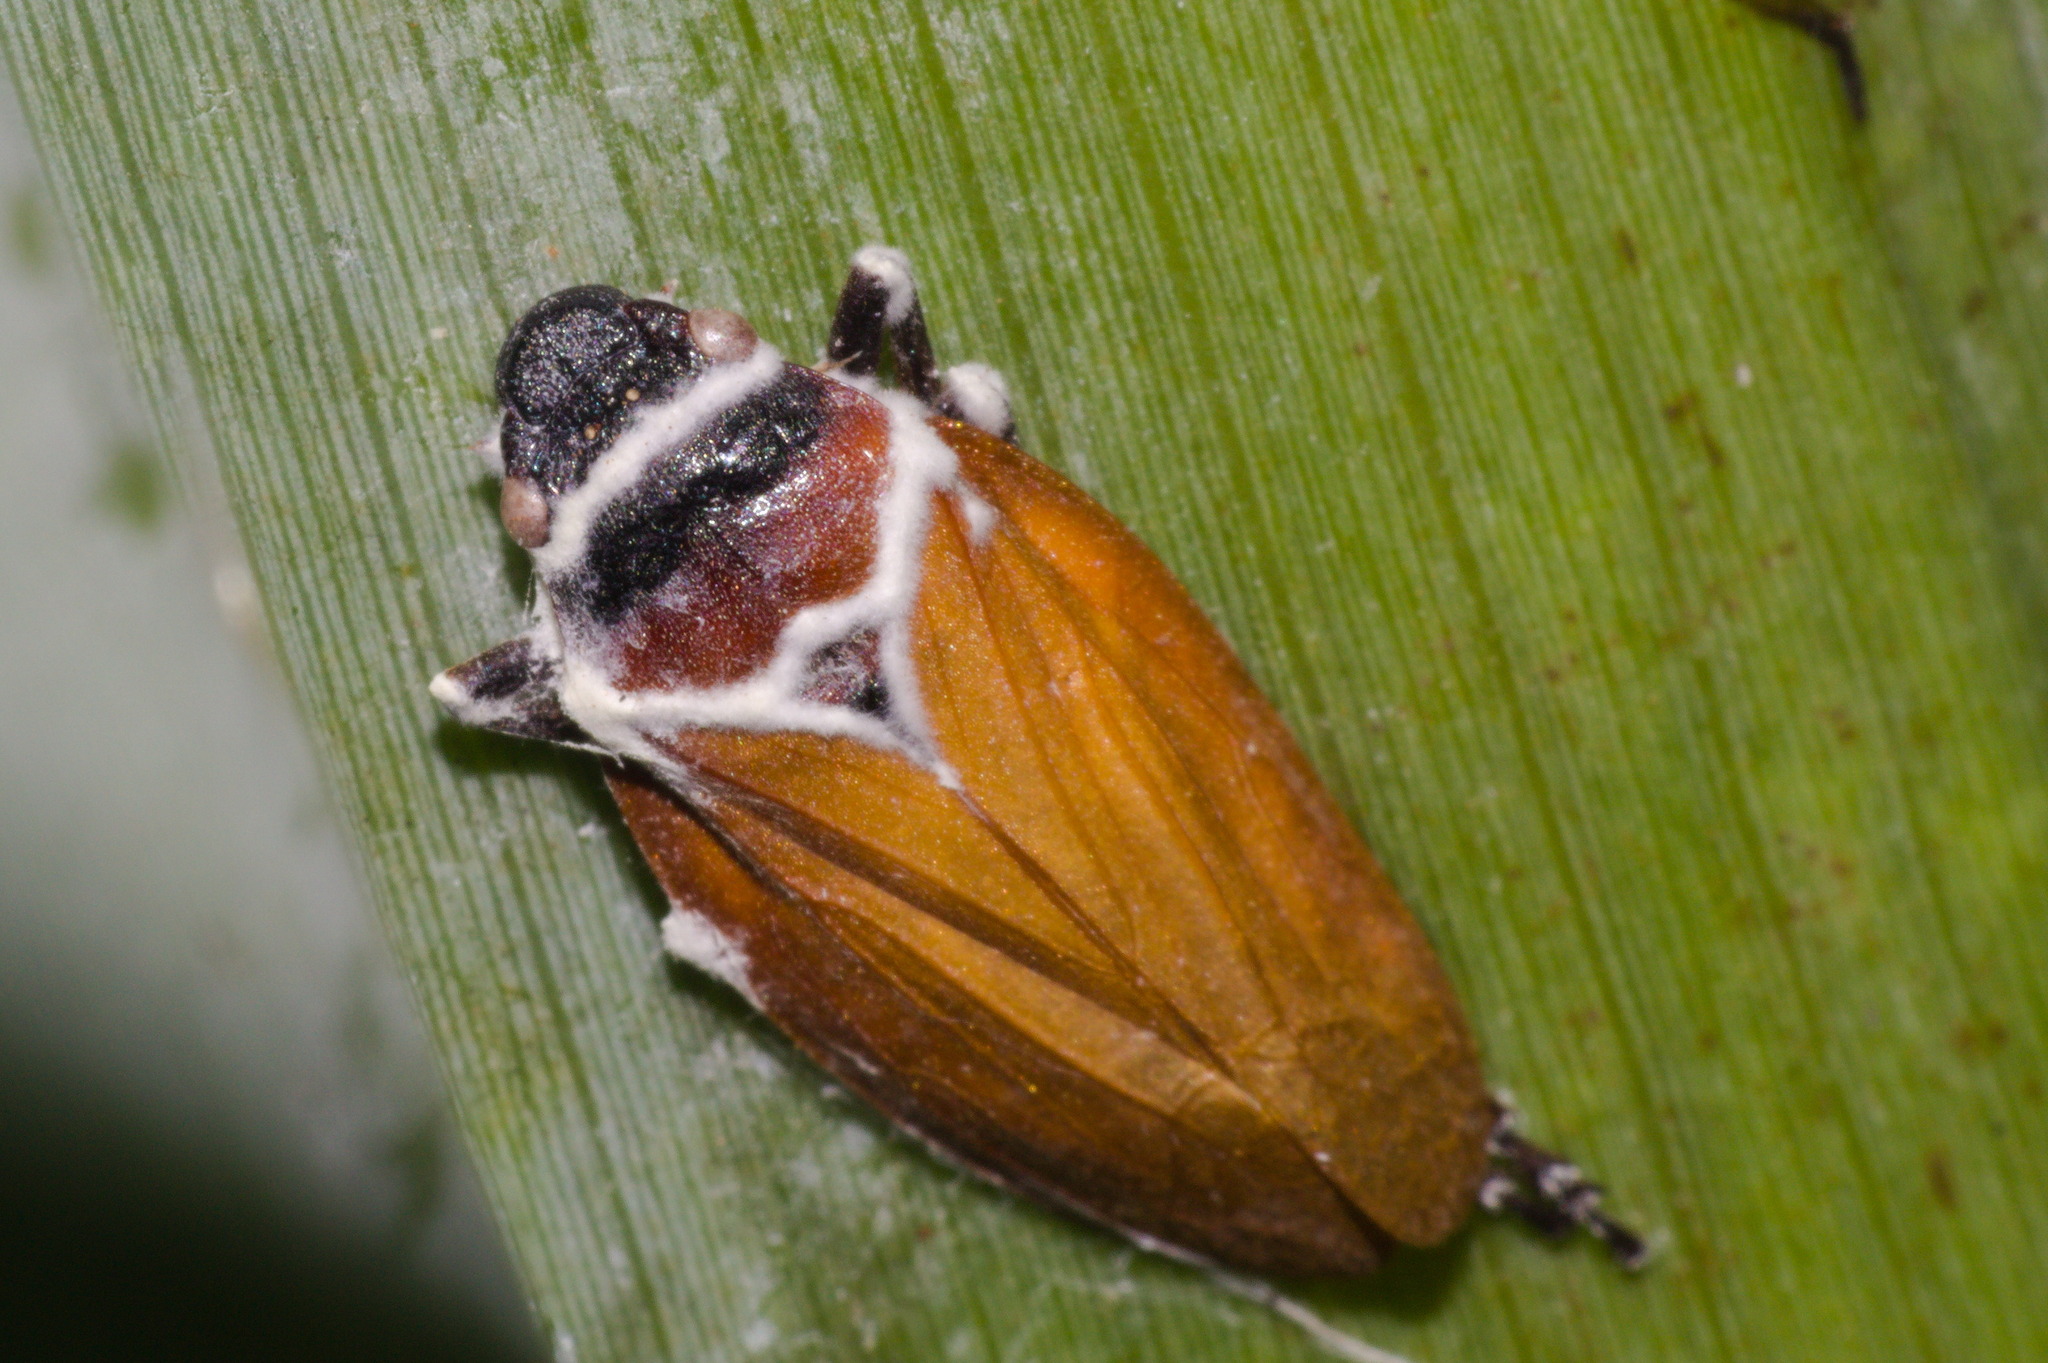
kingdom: Animalia
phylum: Arthropoda
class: Insecta
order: Hemiptera
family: Cercopidae
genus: Kanaima
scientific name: Kanaima katzensteinii
